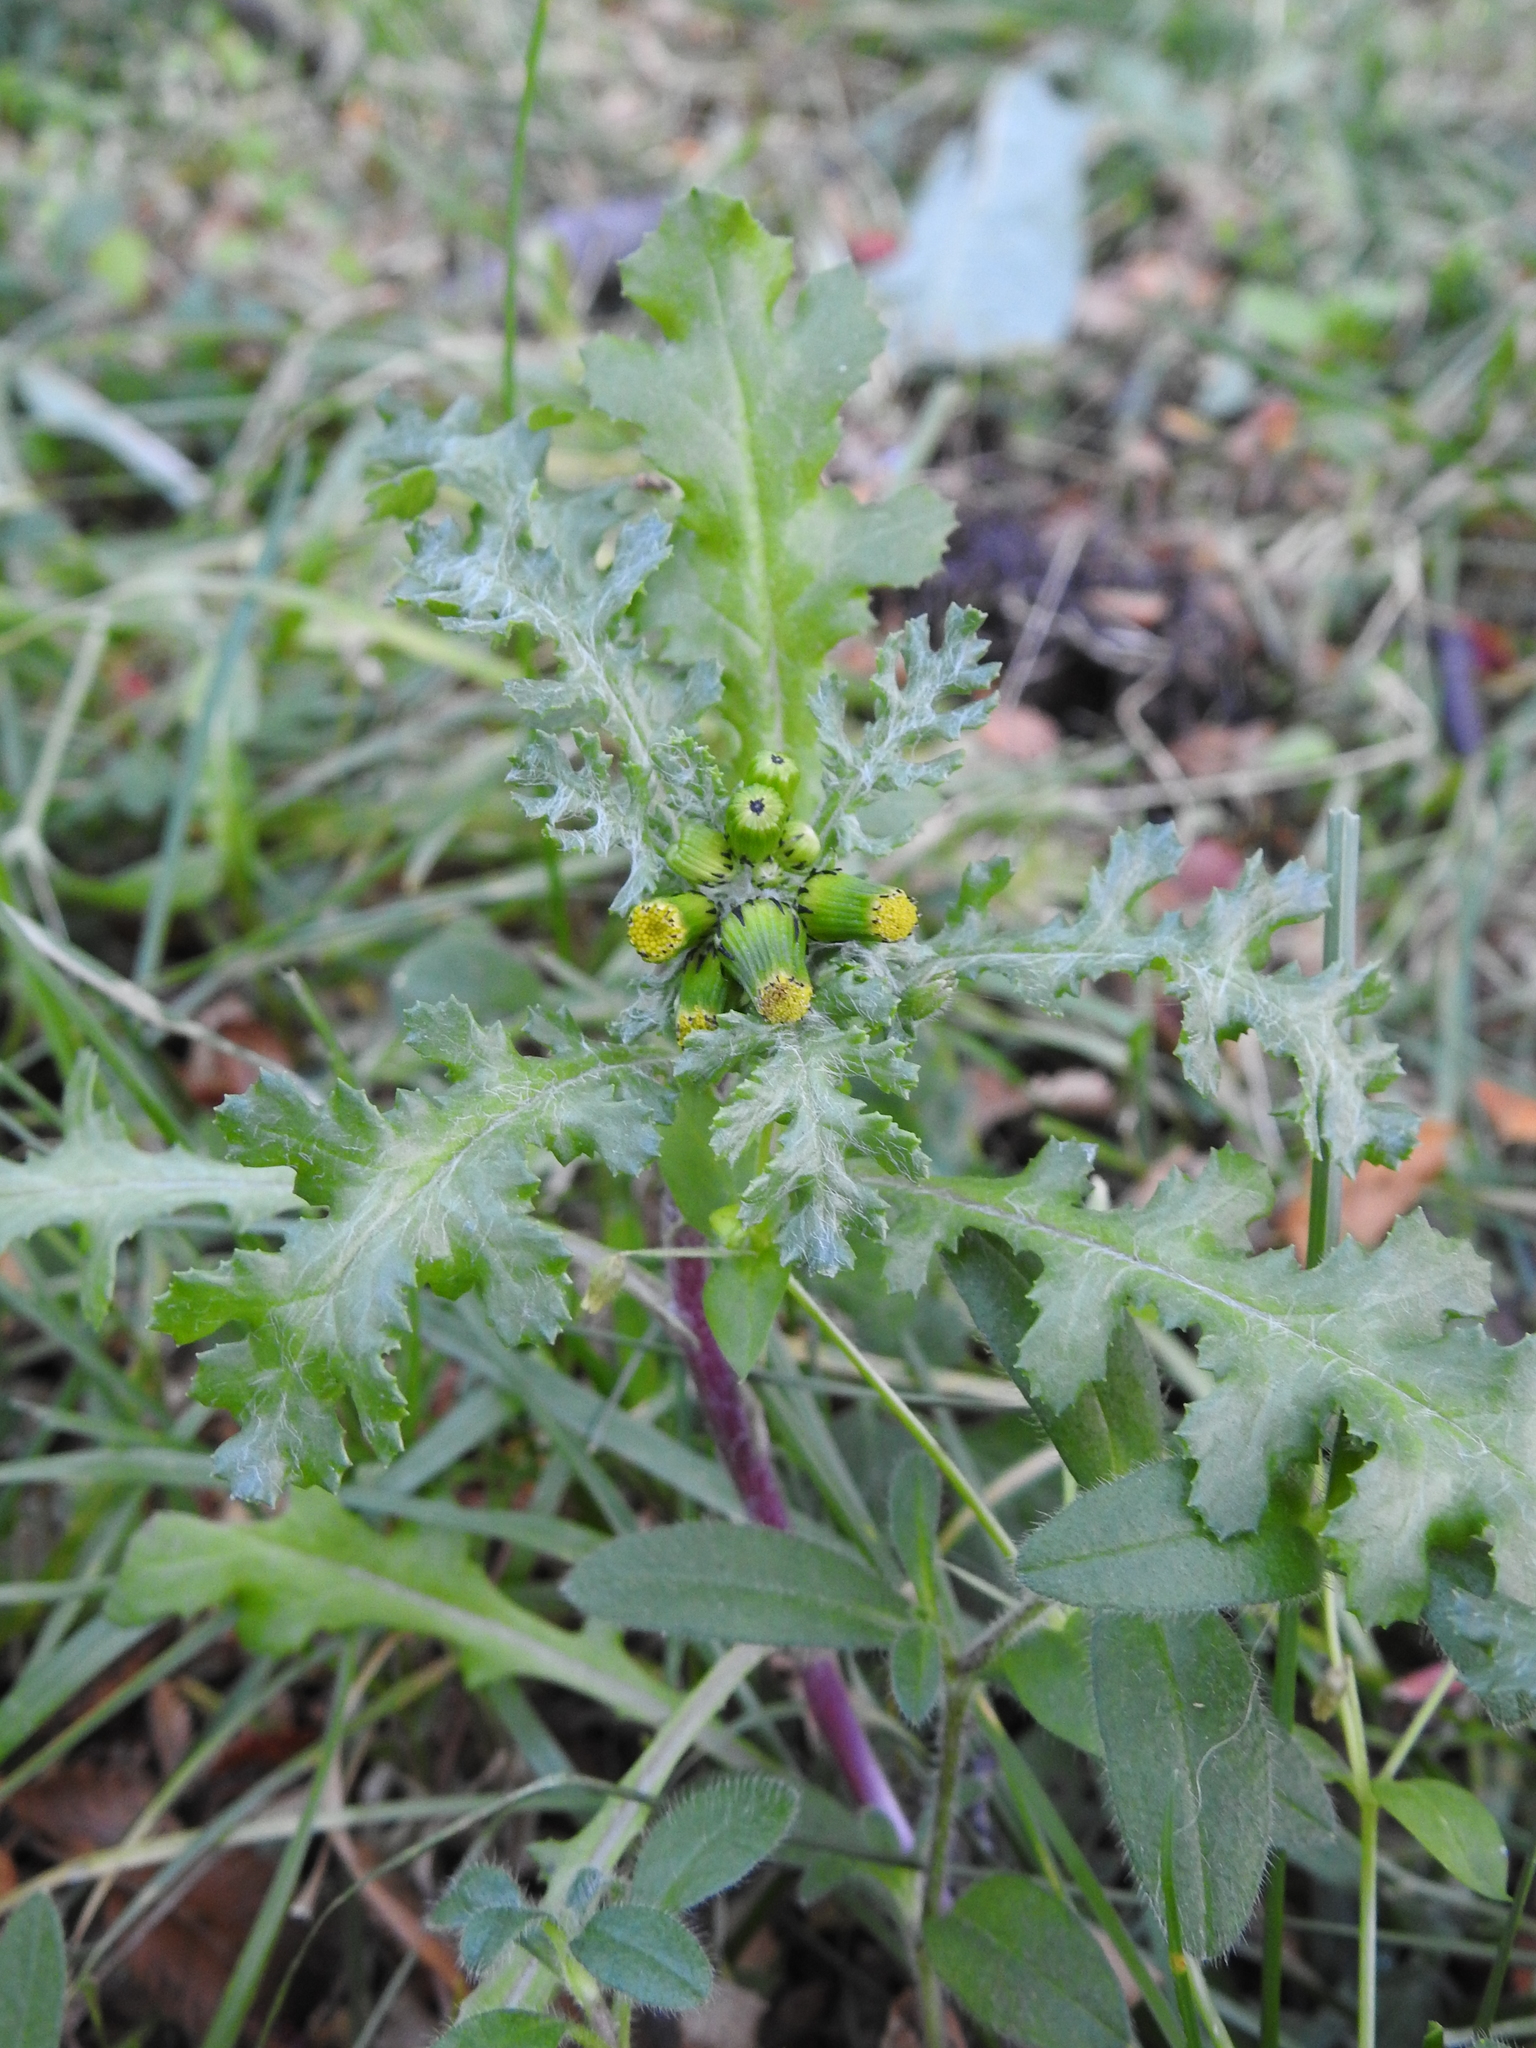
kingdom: Plantae
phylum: Tracheophyta
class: Magnoliopsida
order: Asterales
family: Asteraceae
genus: Senecio
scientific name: Senecio vulgaris
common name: Old-man-in-the-spring
